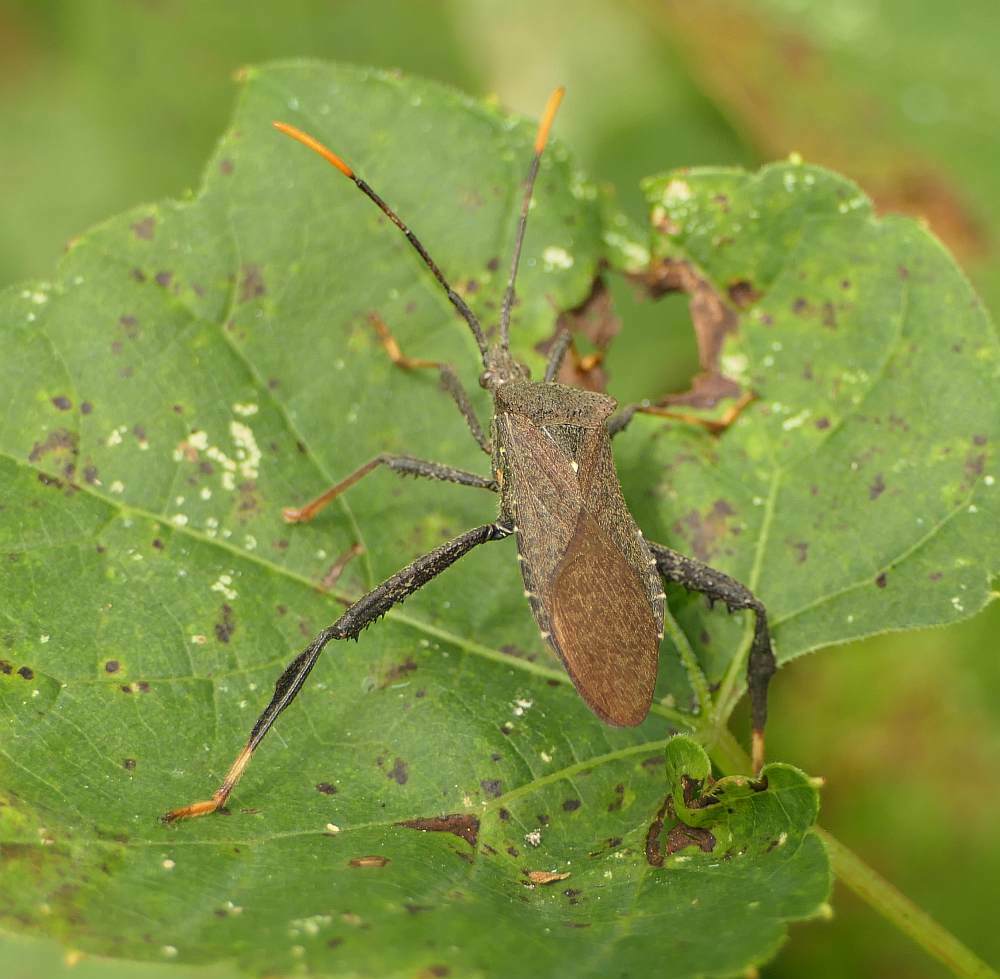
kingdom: Animalia
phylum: Arthropoda
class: Insecta
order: Hemiptera
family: Coreidae
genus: Acanthocephala
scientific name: Acanthocephala terminalis
